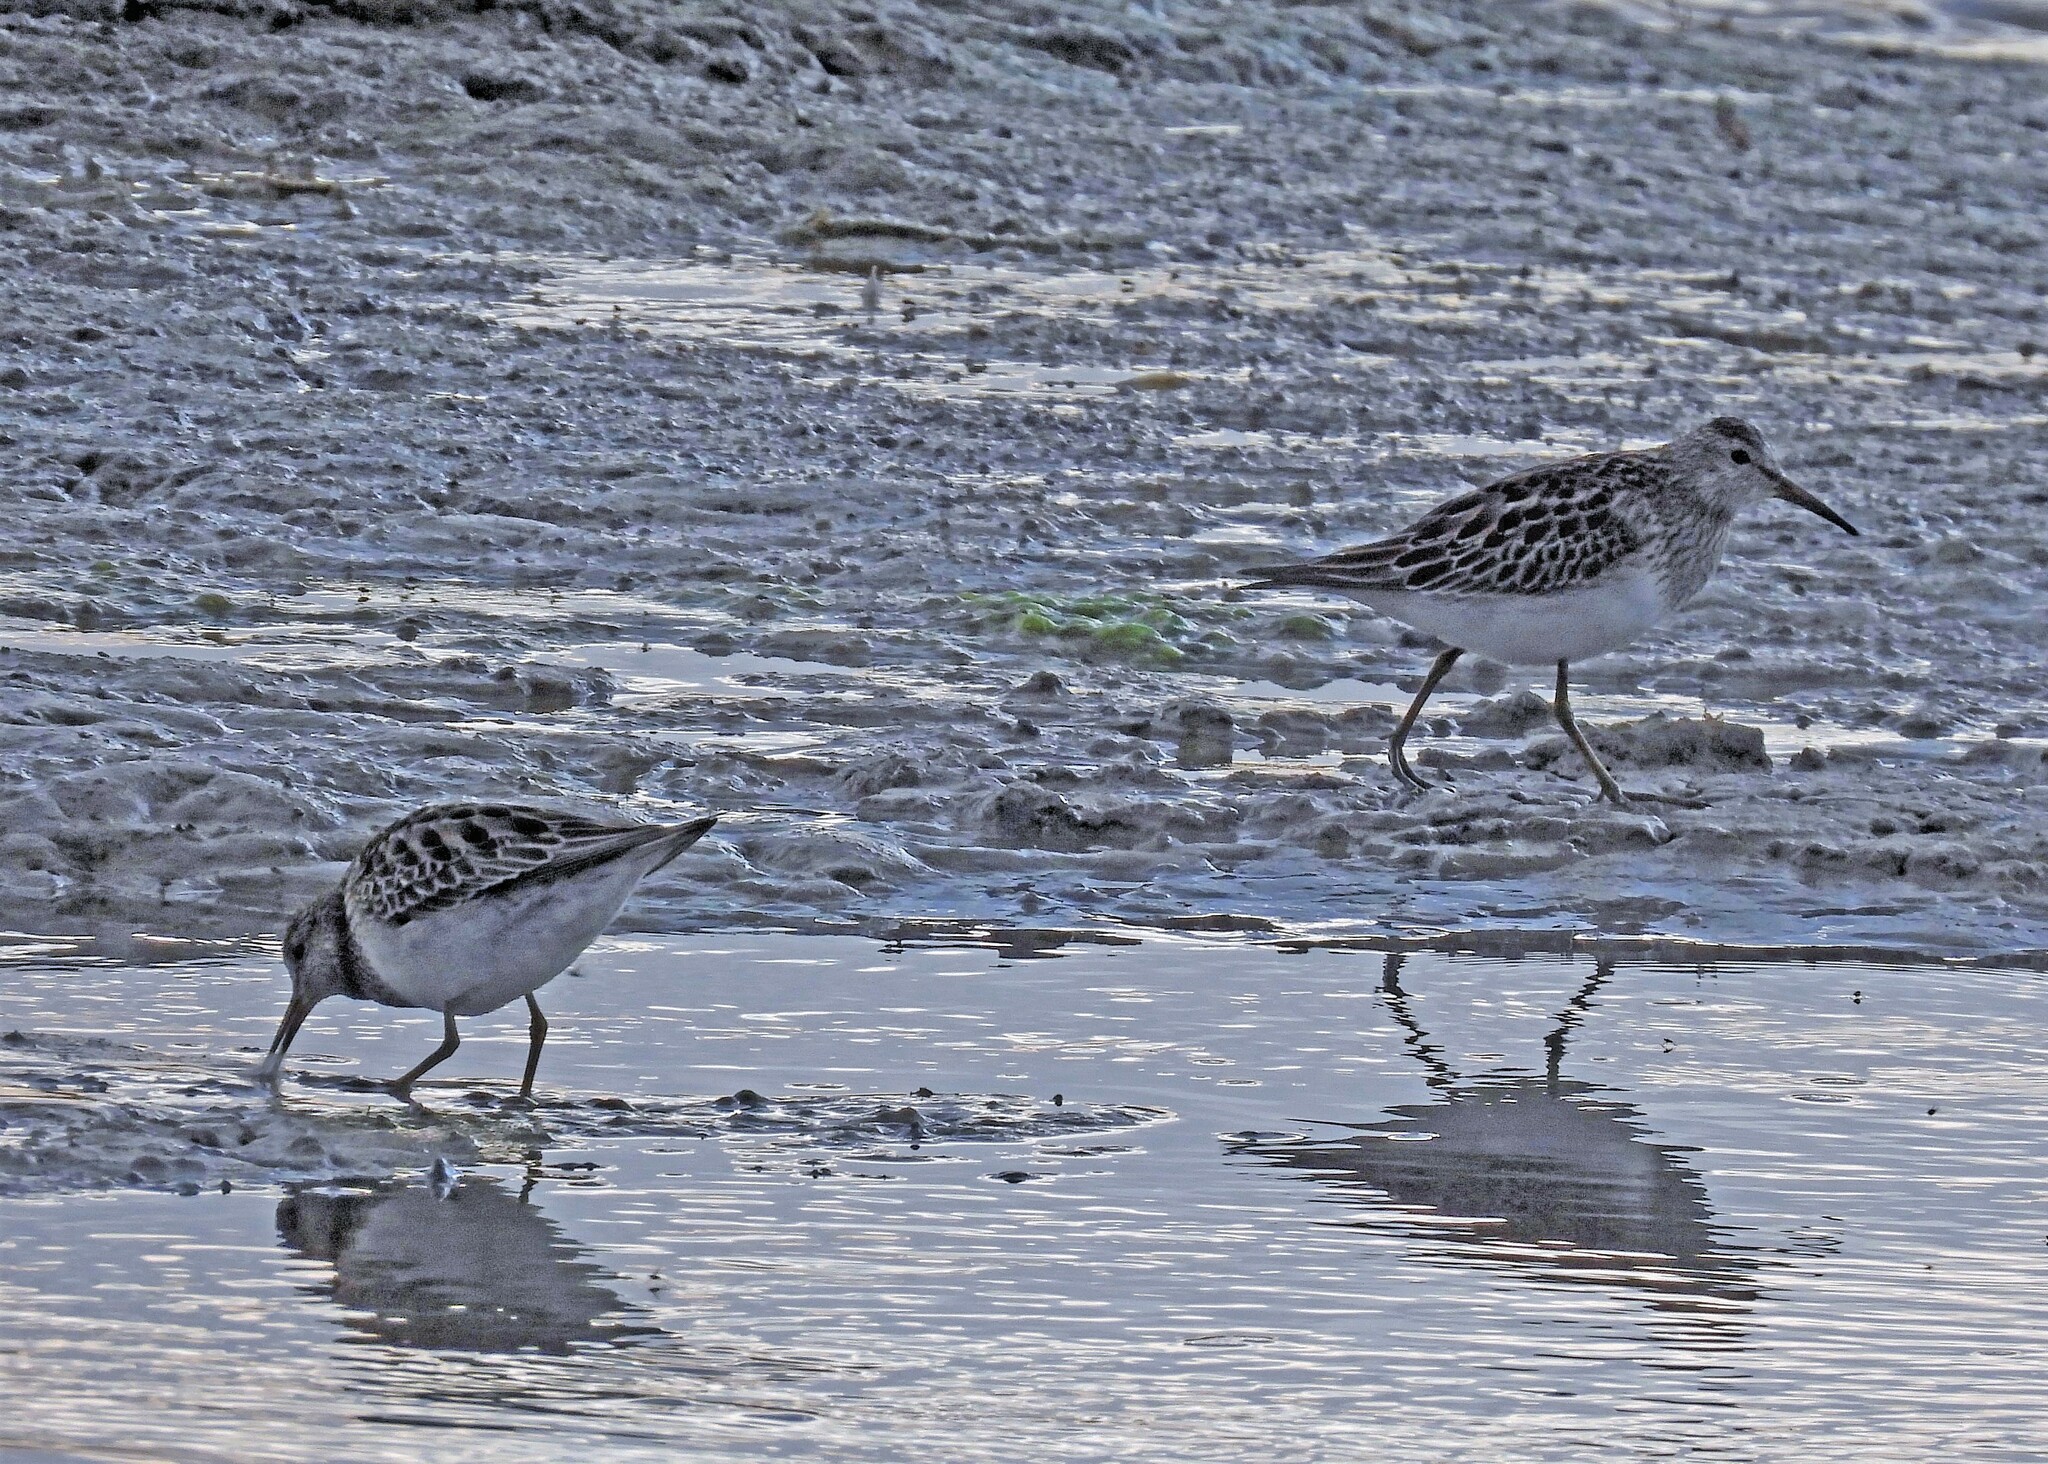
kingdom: Animalia
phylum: Chordata
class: Aves
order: Charadriiformes
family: Scolopacidae
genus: Calidris
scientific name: Calidris melanotos
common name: Pectoral sandpiper
